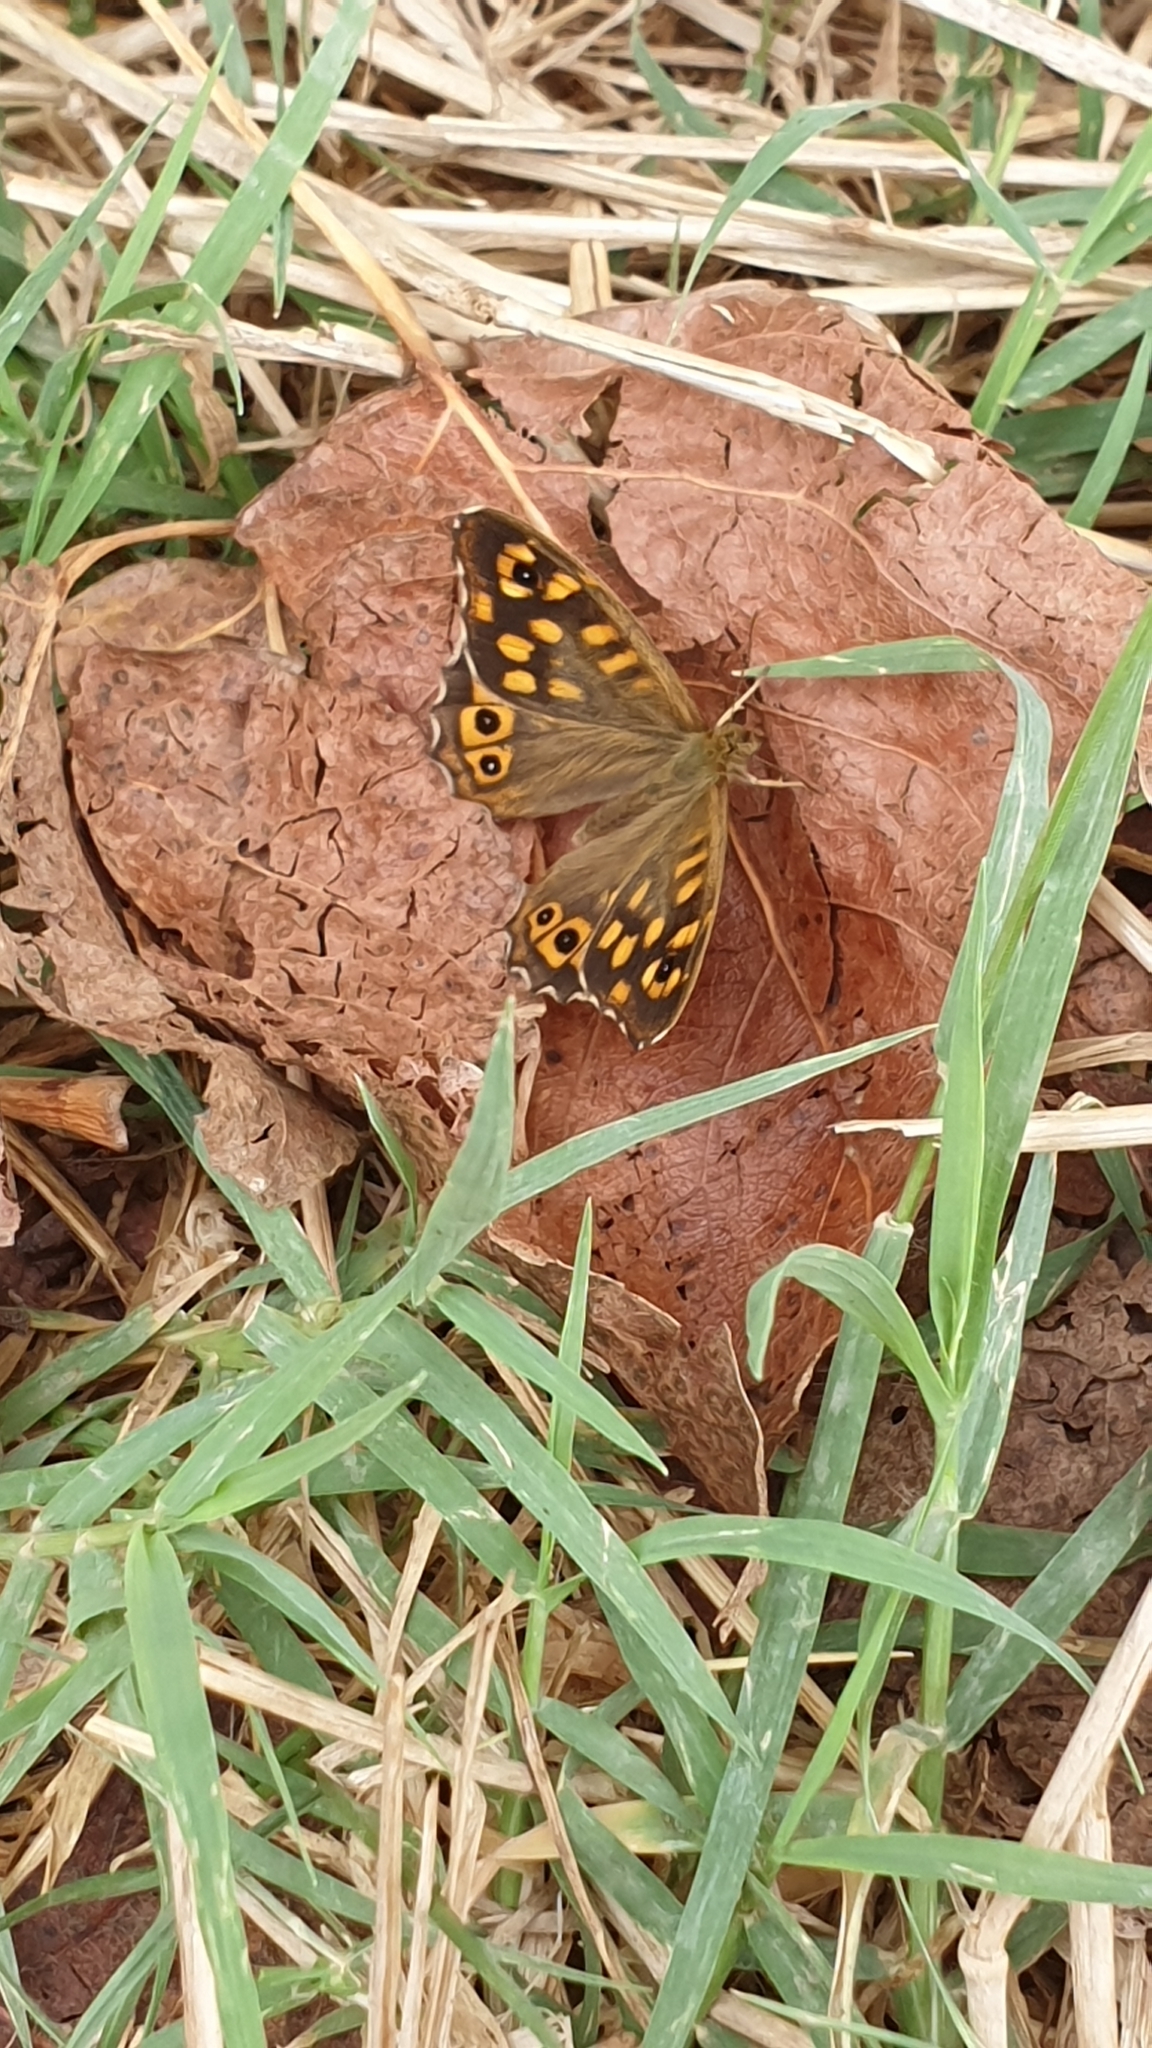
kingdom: Animalia
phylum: Arthropoda
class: Insecta
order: Lepidoptera
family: Nymphalidae
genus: Pararge
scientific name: Pararge aegeria
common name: Speckled wood
